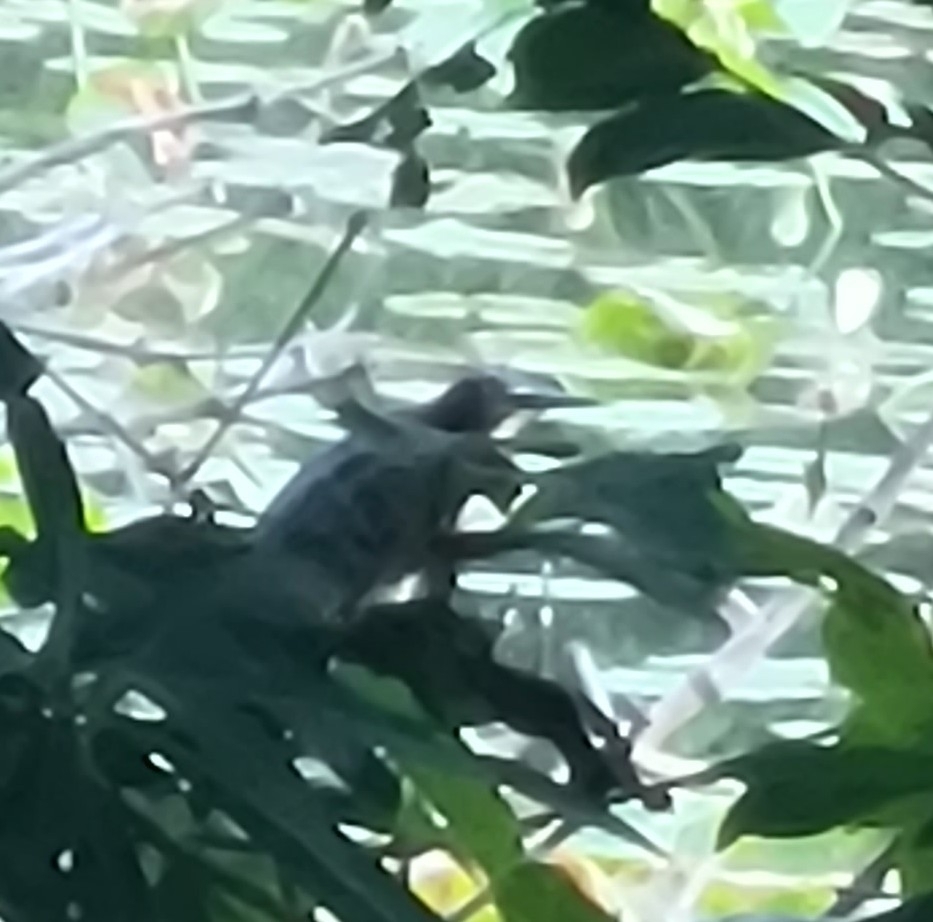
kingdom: Animalia
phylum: Chordata
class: Aves
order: Pelecaniformes
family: Ardeidae
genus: Butorides
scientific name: Butorides virescens
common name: Green heron
